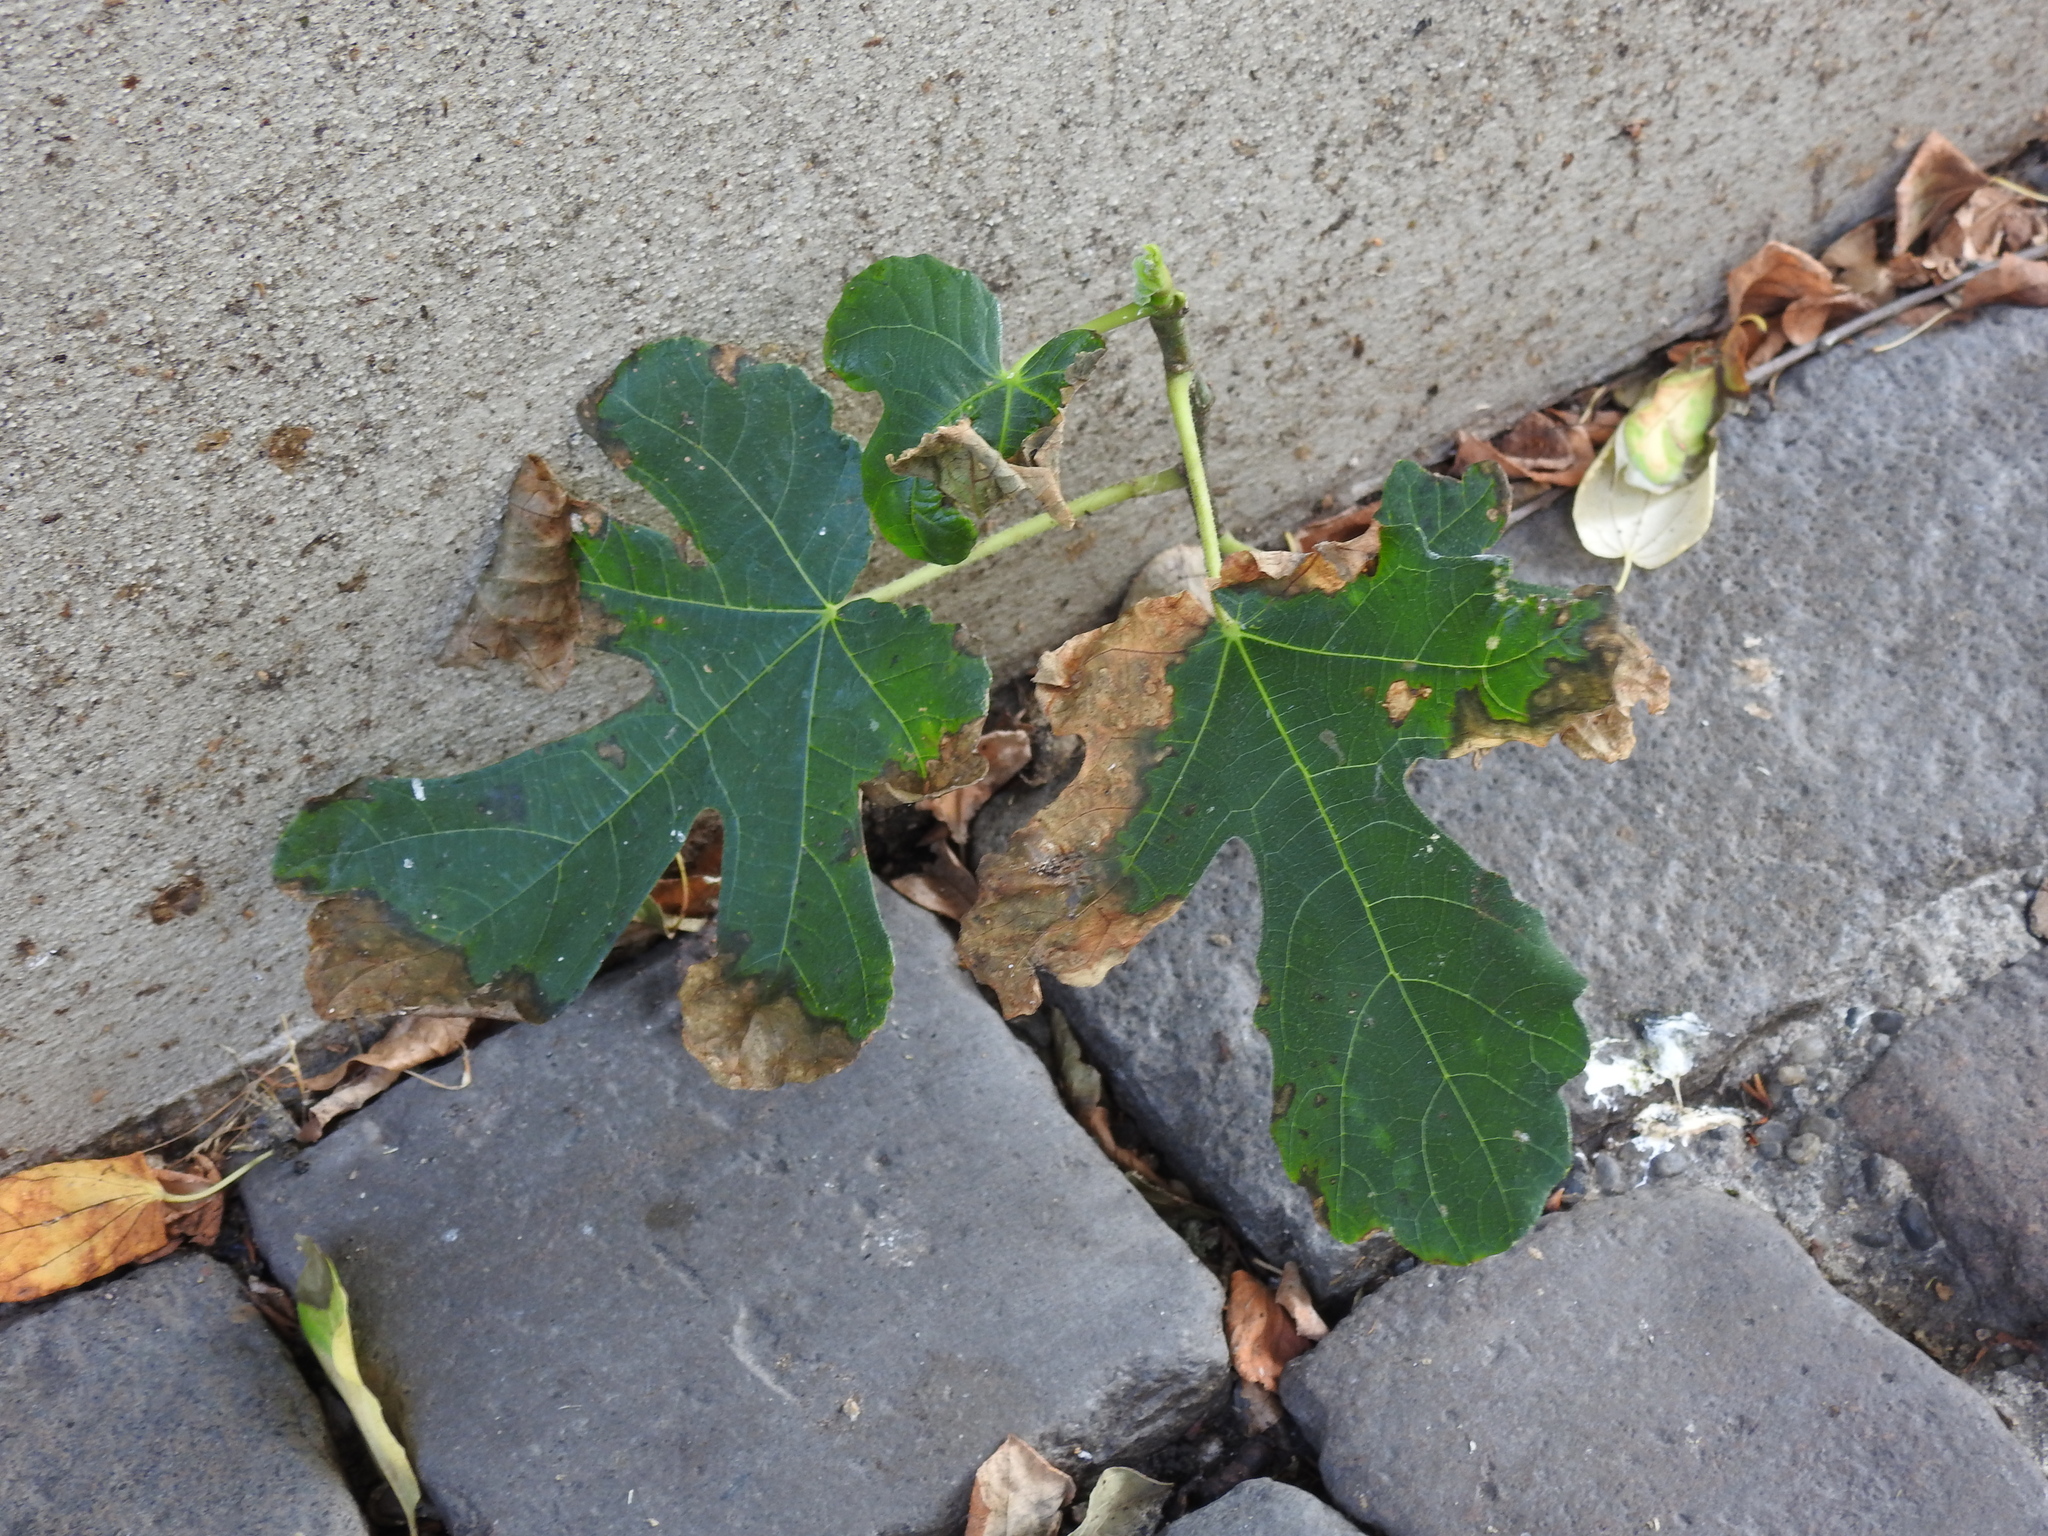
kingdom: Plantae
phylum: Tracheophyta
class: Magnoliopsida
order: Rosales
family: Moraceae
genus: Ficus
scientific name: Ficus carica
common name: Fig
